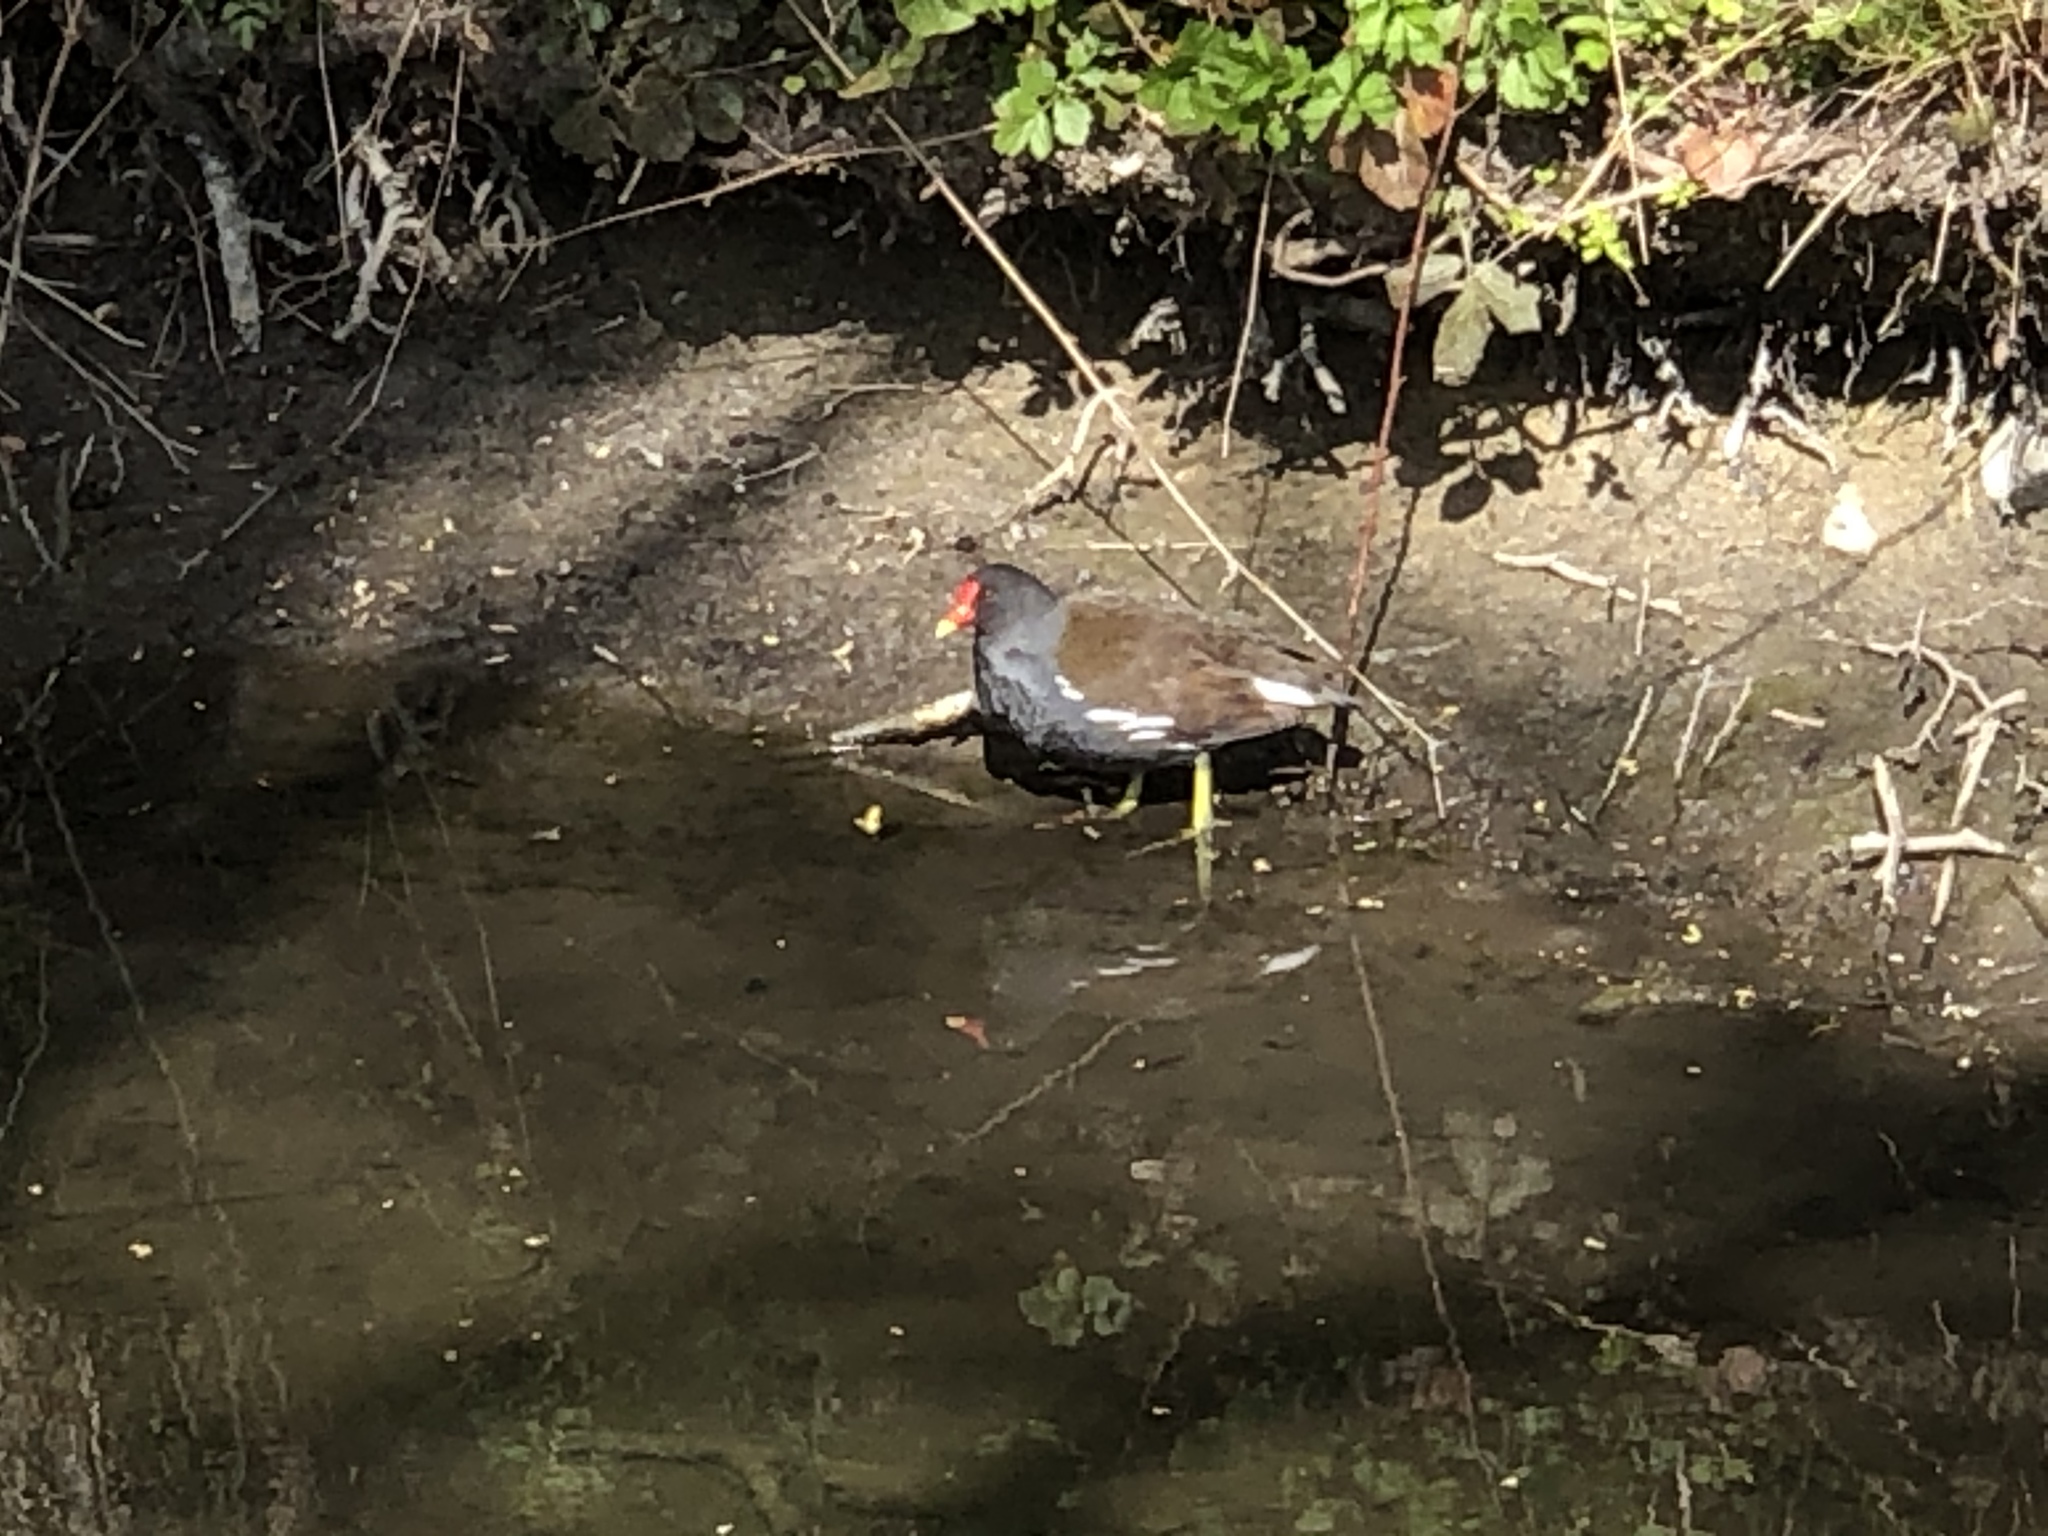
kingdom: Animalia
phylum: Chordata
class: Aves
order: Gruiformes
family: Rallidae
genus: Gallinula
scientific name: Gallinula chloropus
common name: Common moorhen
